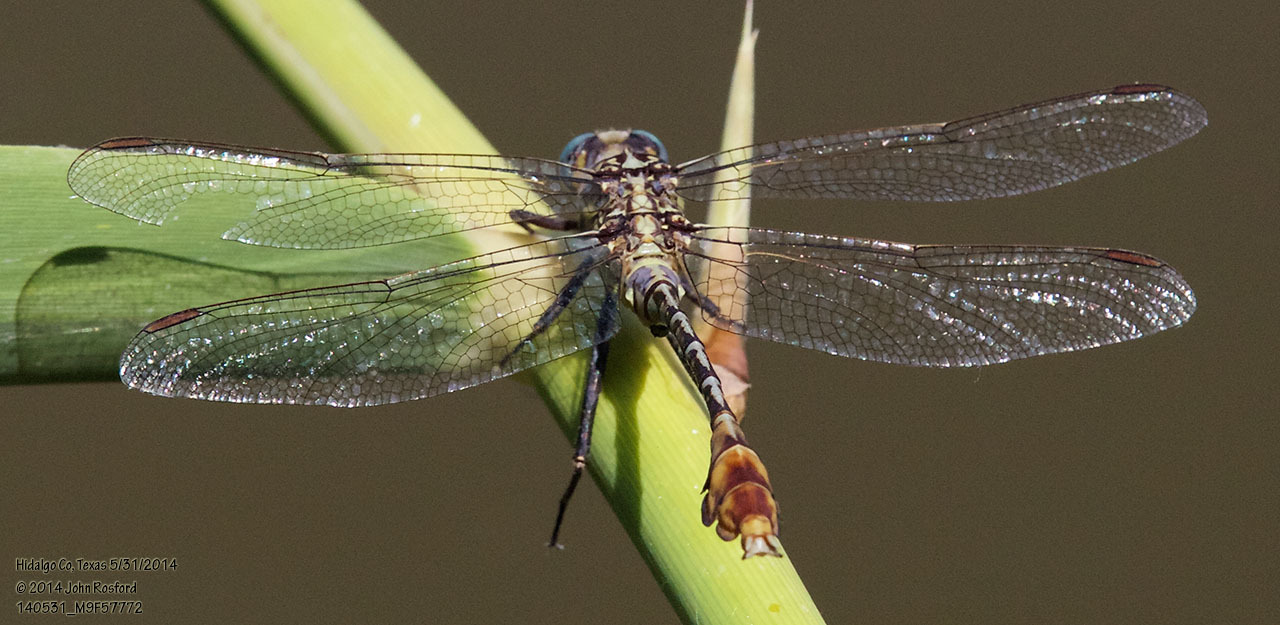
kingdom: Animalia
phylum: Arthropoda
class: Insecta
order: Odonata
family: Gomphidae
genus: Dromogomphus
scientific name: Dromogomphus spoliatus
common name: Flag-tailed spinyleg
